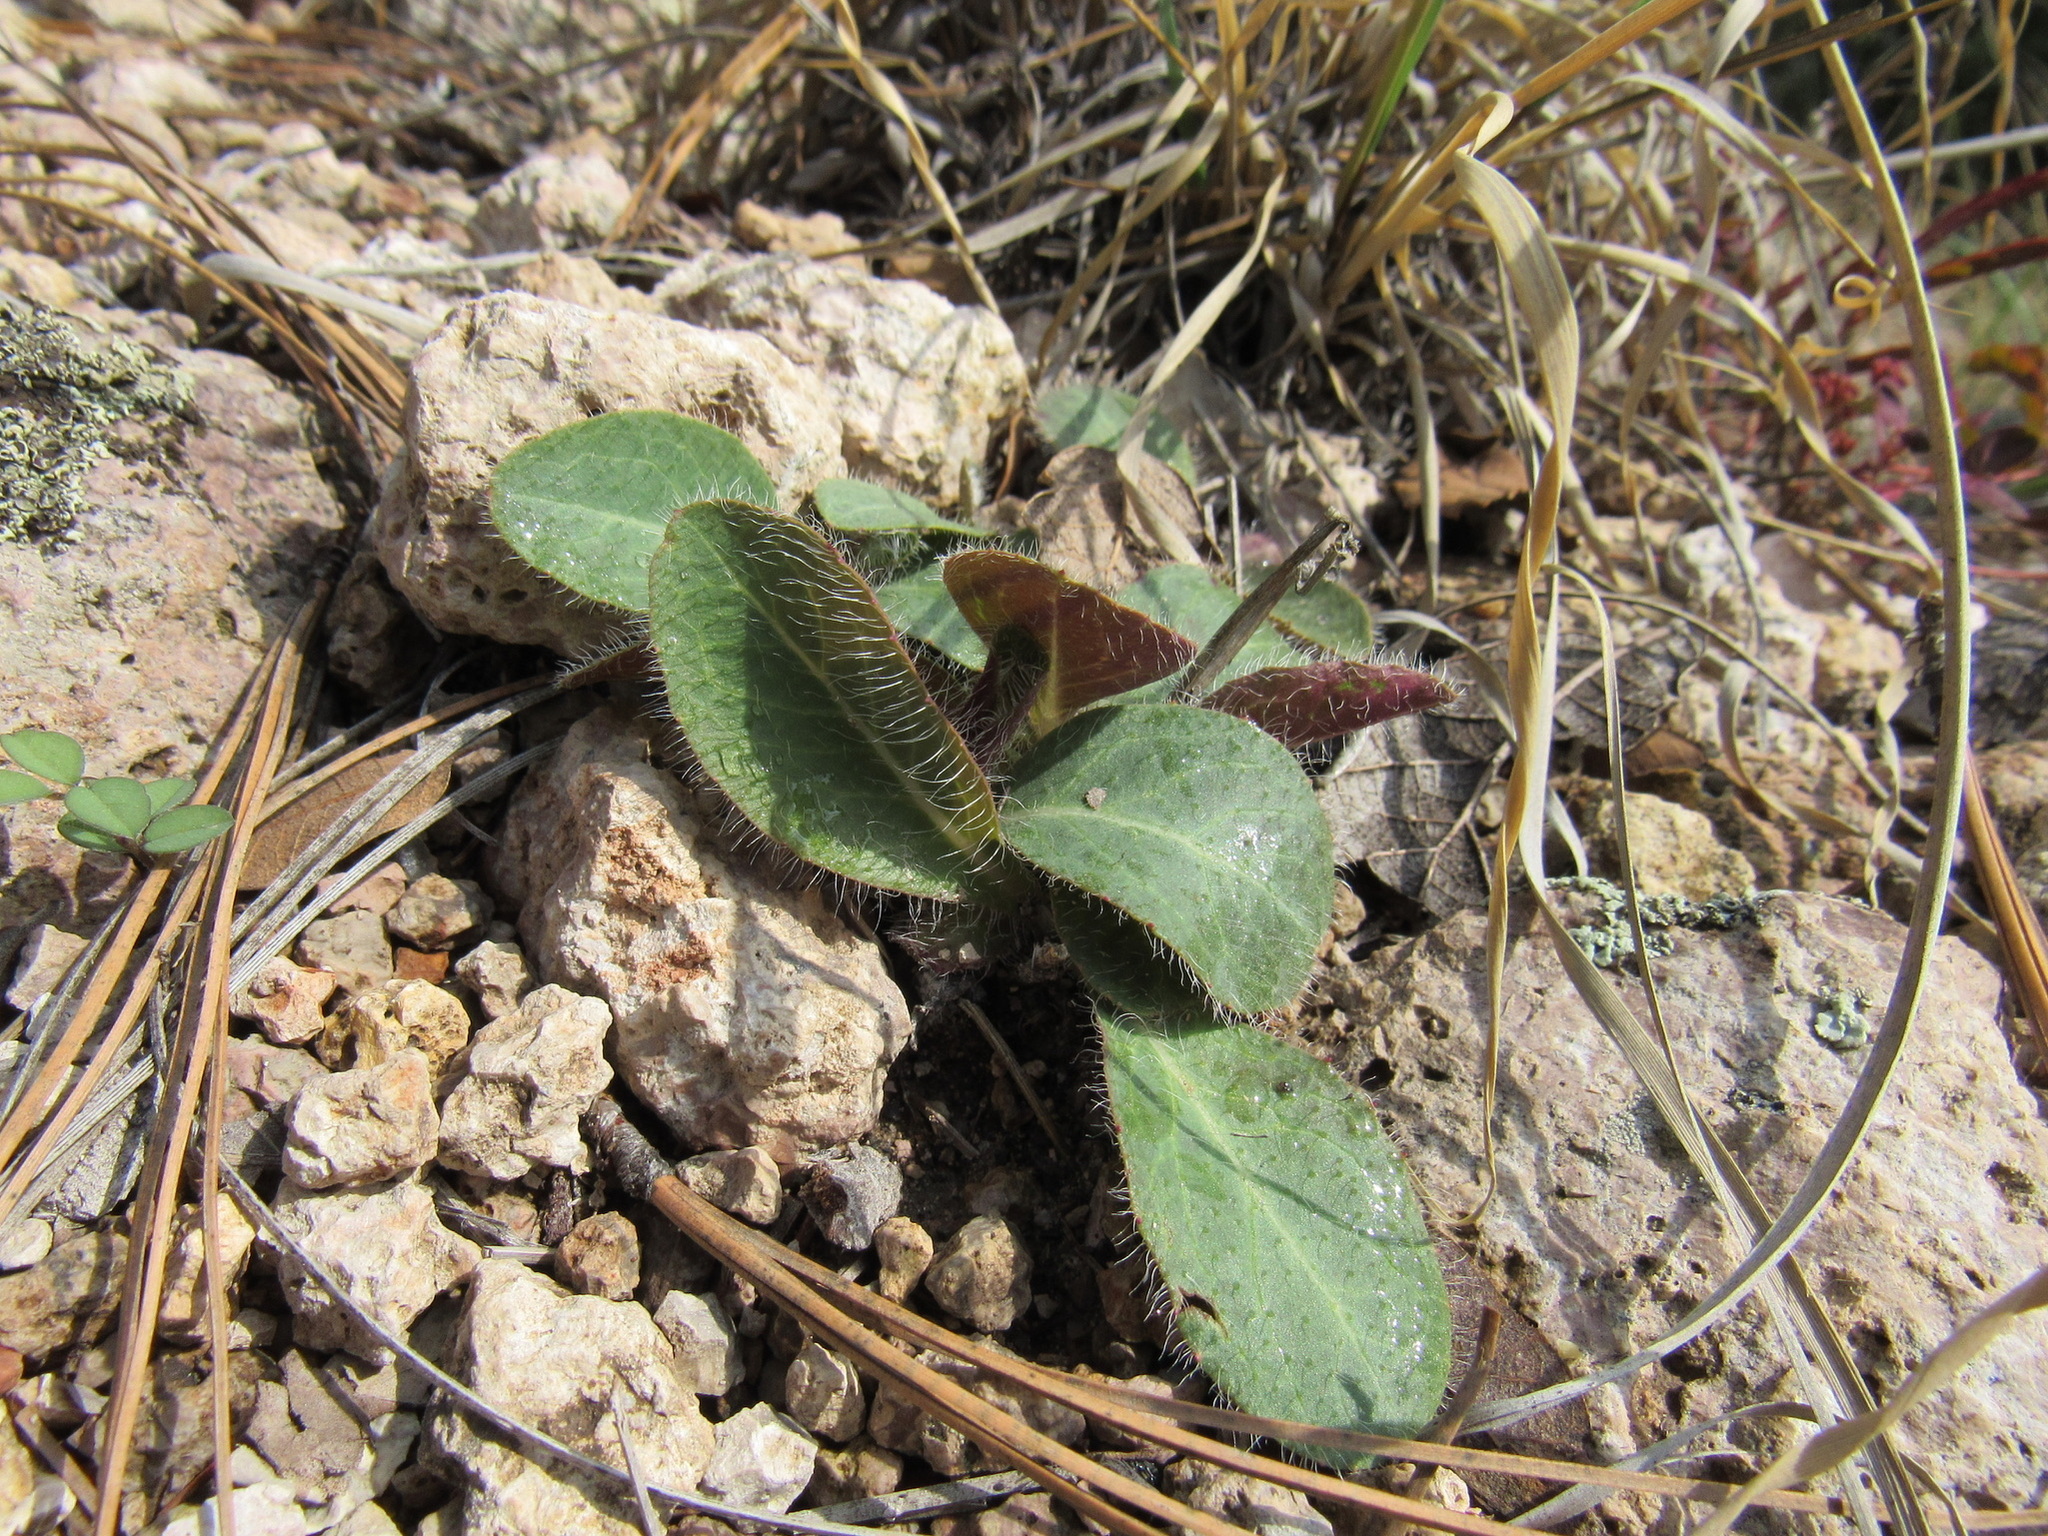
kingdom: Plantae
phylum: Tracheophyta
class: Magnoliopsida
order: Asterales
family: Asteraceae
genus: Hieracium
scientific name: Hieracium fendleri
